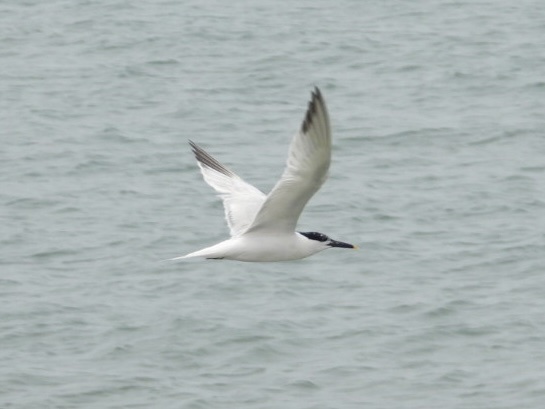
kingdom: Animalia
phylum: Chordata
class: Aves
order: Charadriiformes
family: Laridae
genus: Thalasseus
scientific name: Thalasseus sandvicensis
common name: Sandwich tern
